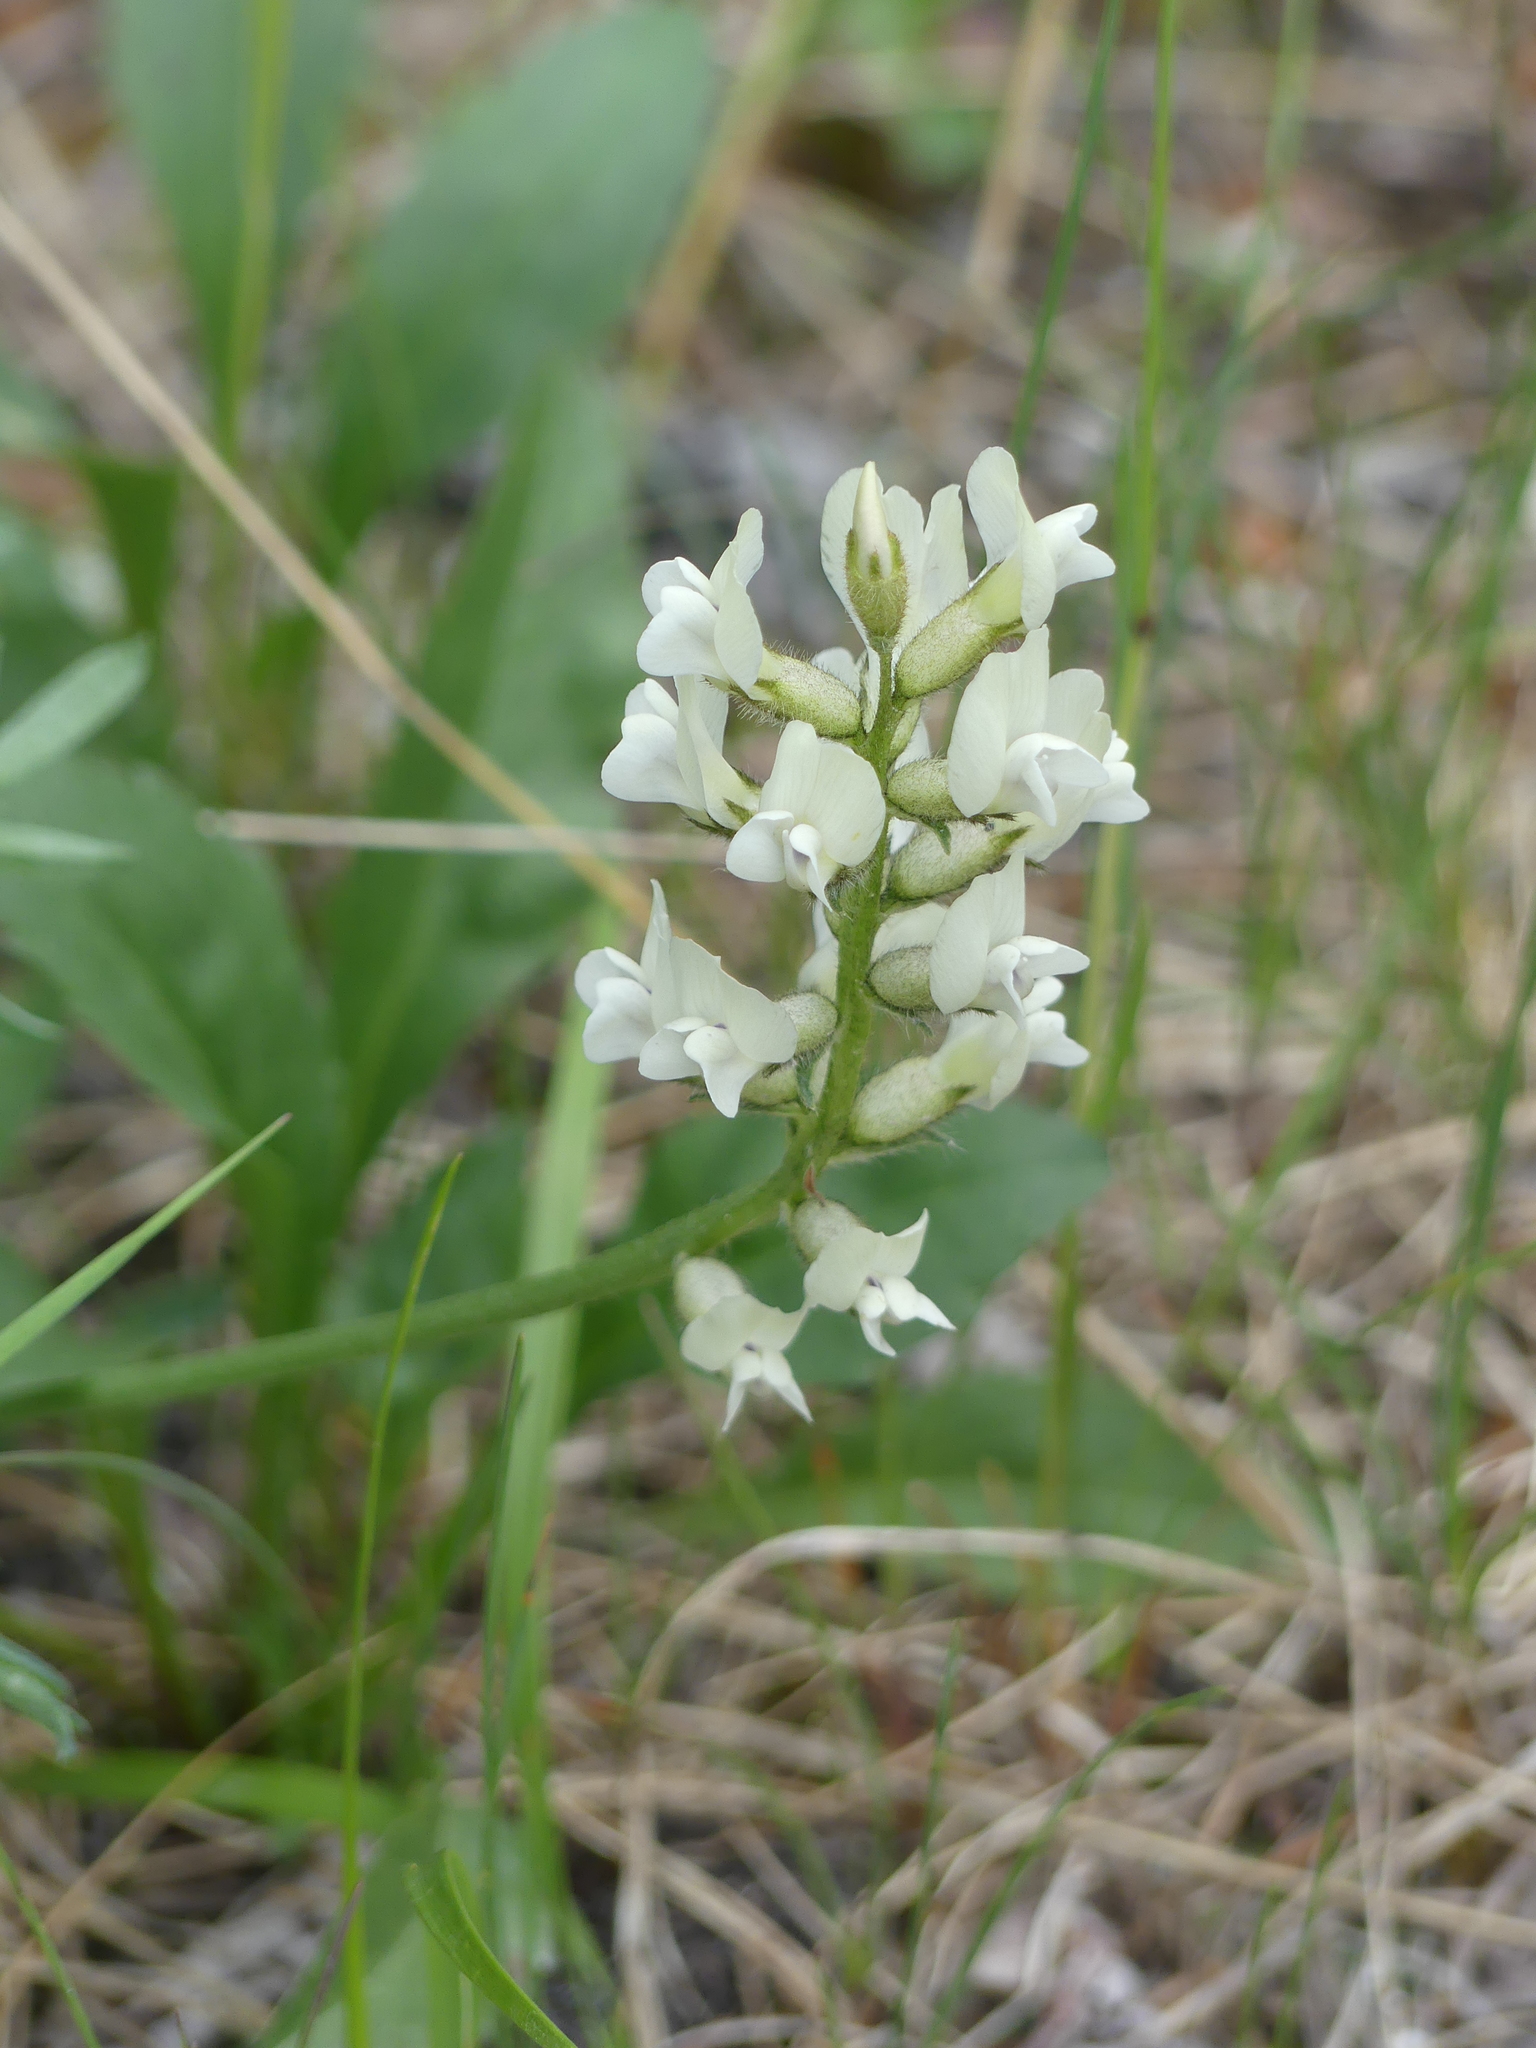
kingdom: Plantae
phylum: Tracheophyta
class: Magnoliopsida
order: Fabales
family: Fabaceae
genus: Oxytropis
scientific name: Oxytropis campestris
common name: Field locoweed
